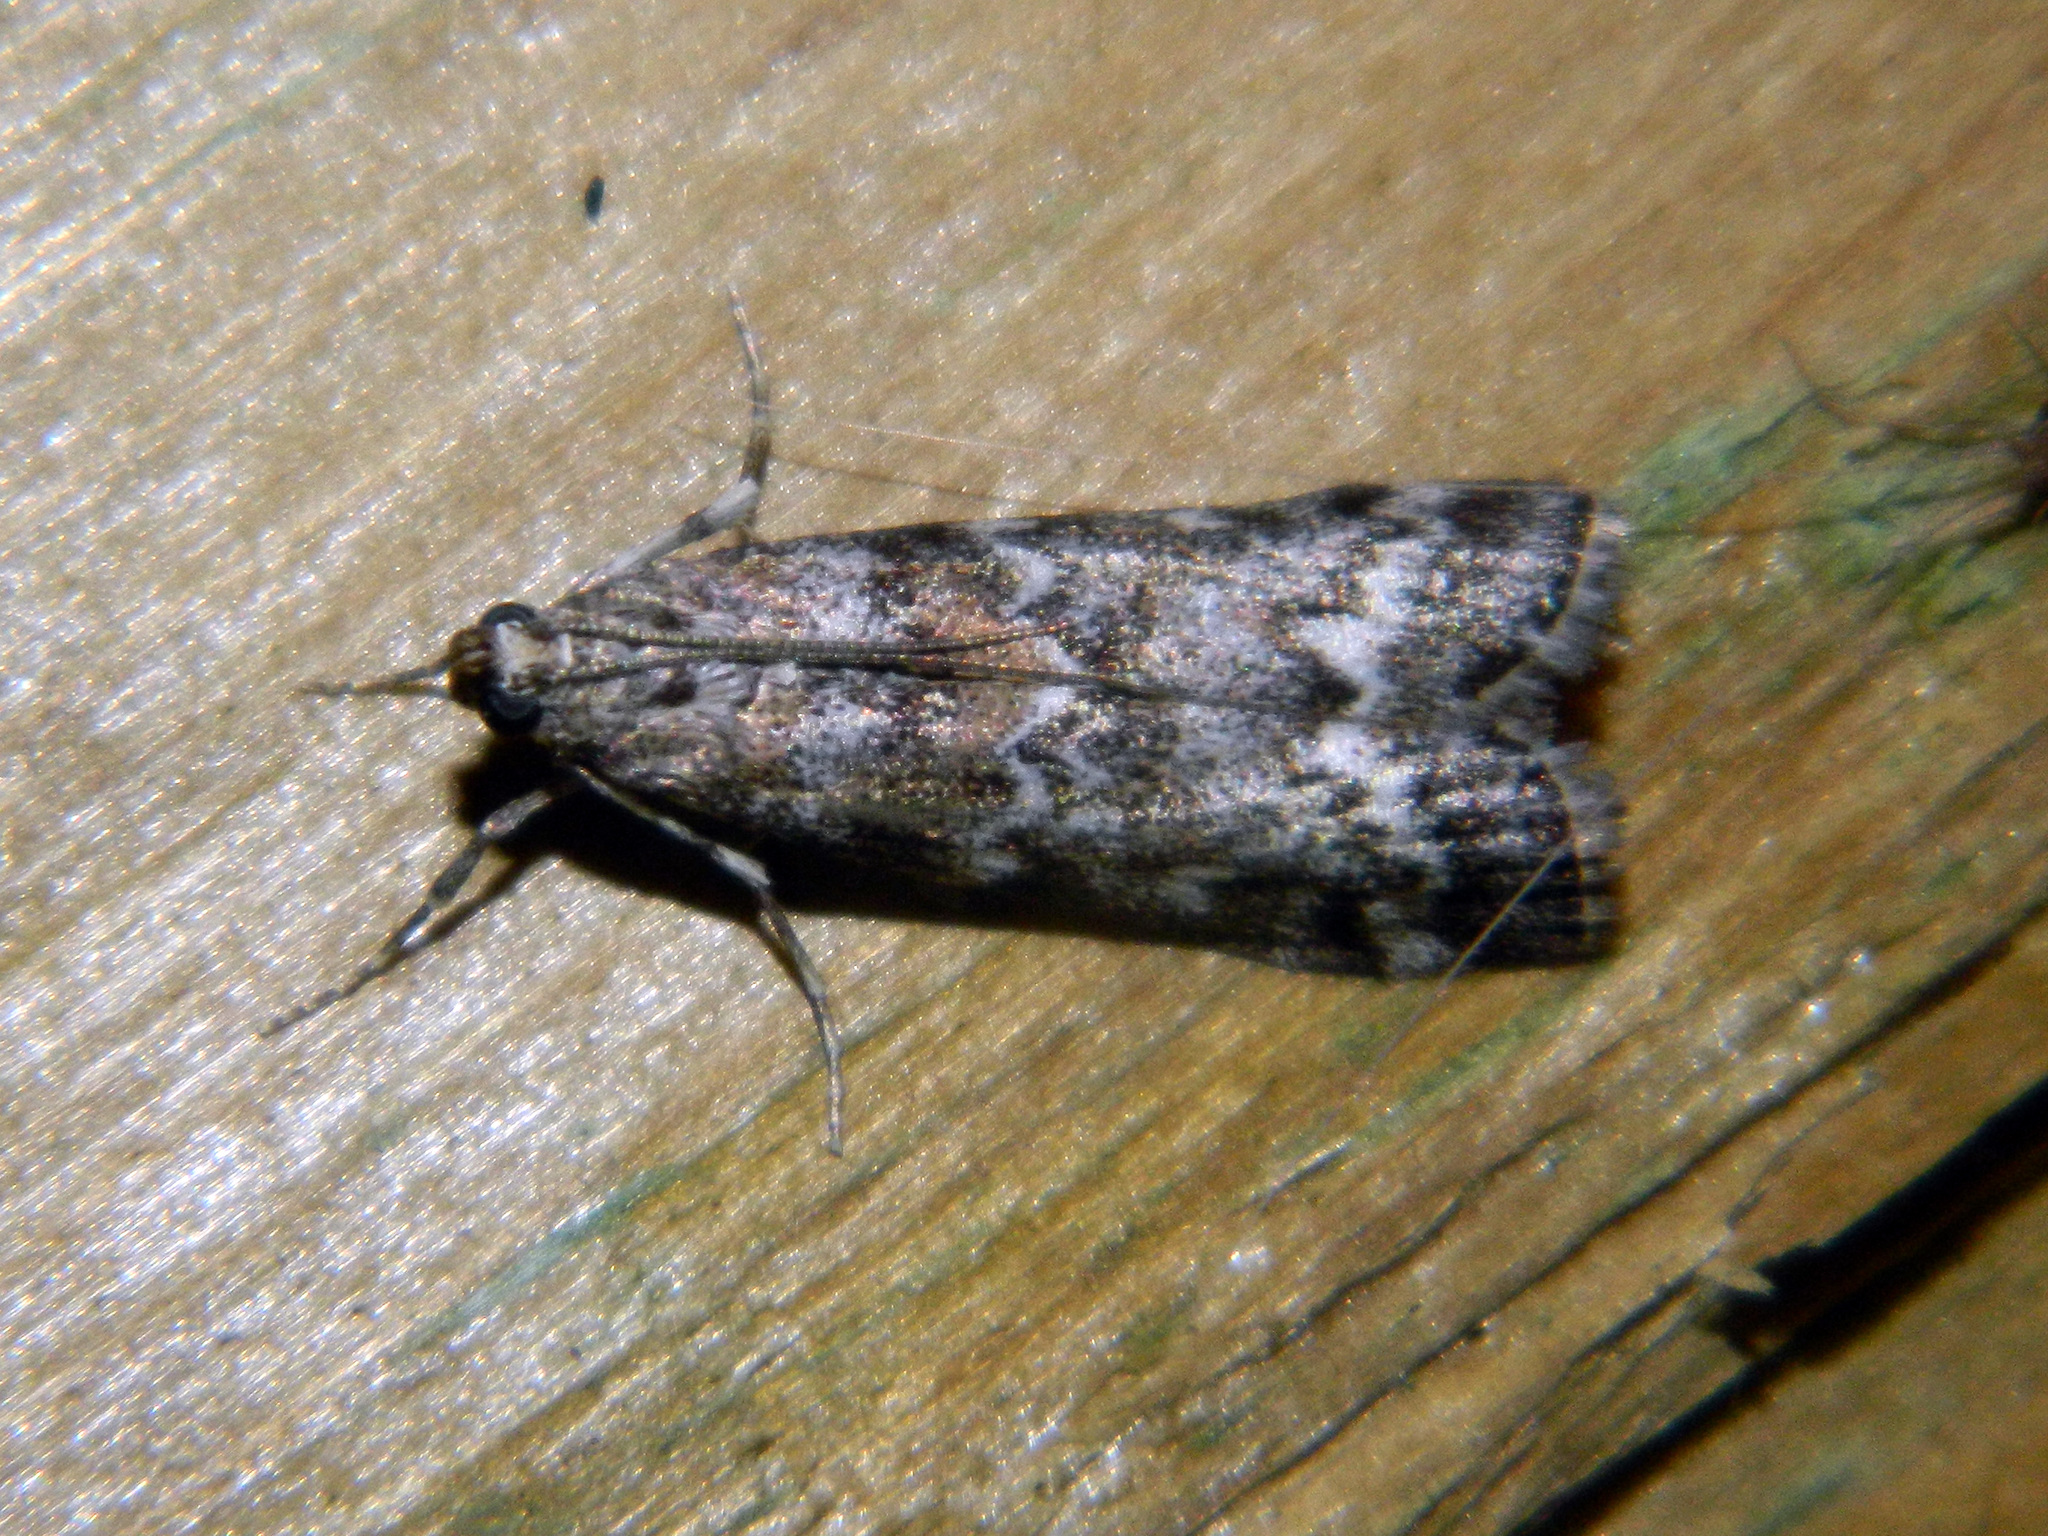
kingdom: Animalia
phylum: Arthropoda
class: Insecta
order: Lepidoptera
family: Pyralidae
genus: Dioryctria
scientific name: Dioryctria reniculelloides
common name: Spruce coneworm moth
